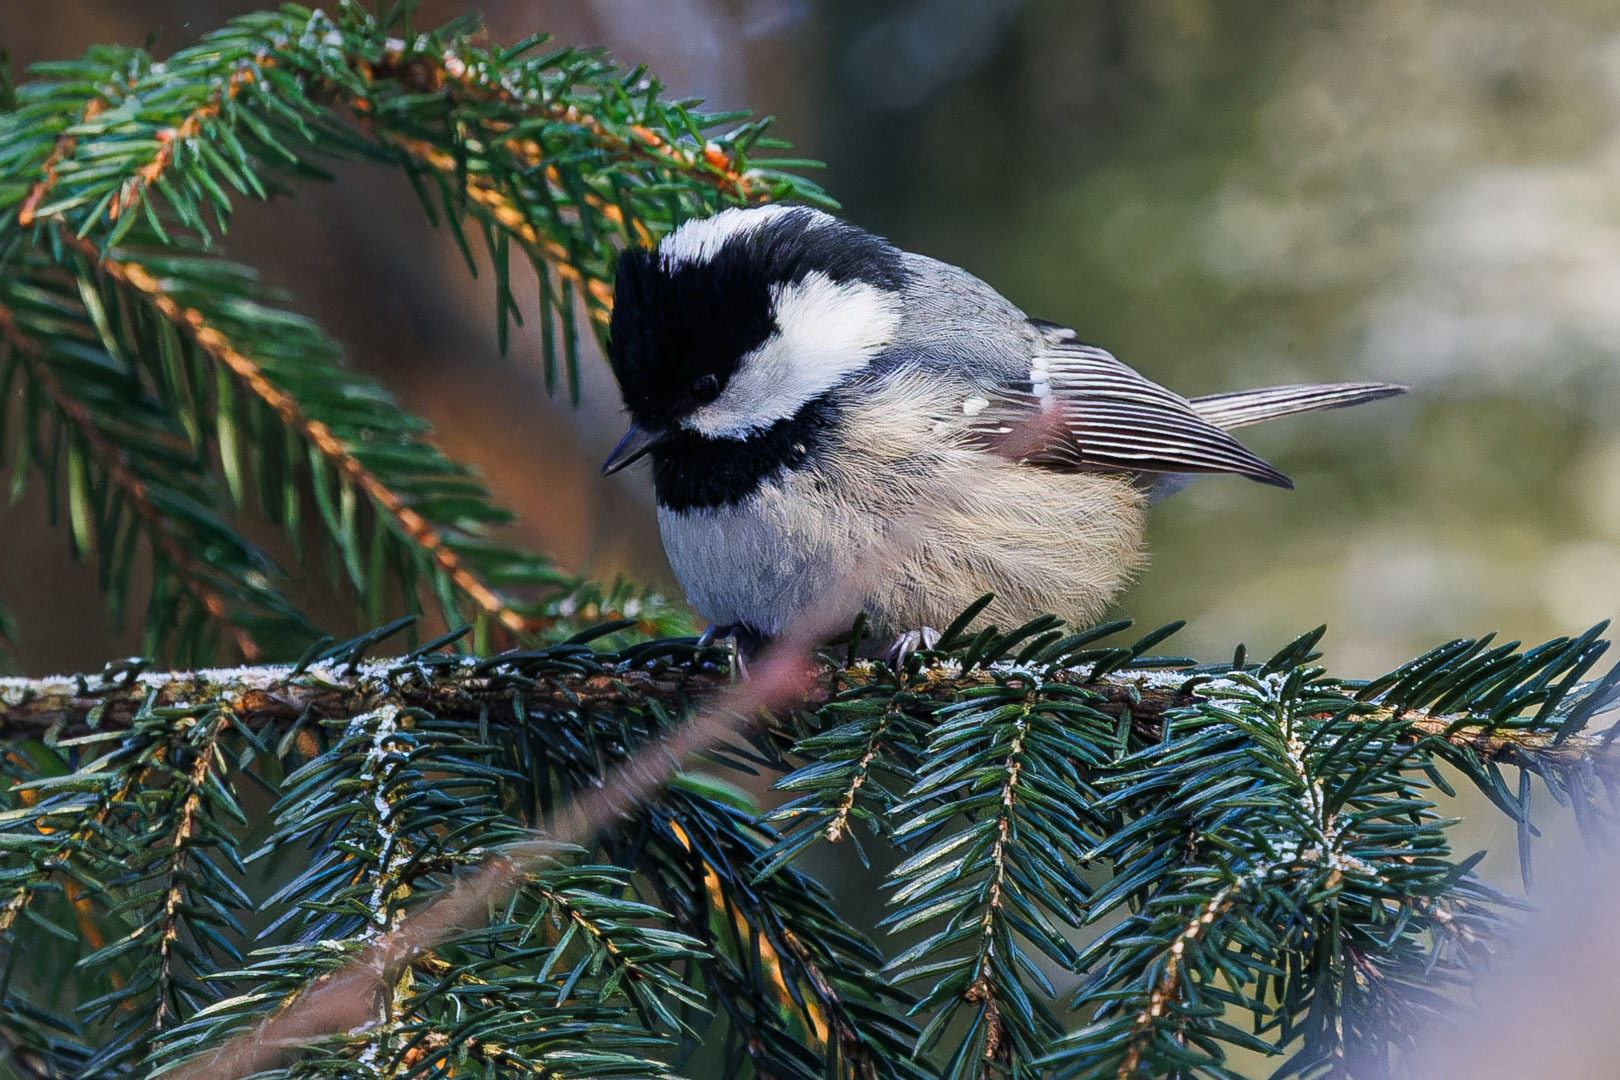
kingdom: Animalia
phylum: Chordata
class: Aves
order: Passeriformes
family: Paridae
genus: Periparus
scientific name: Periparus ater
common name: Coal tit
